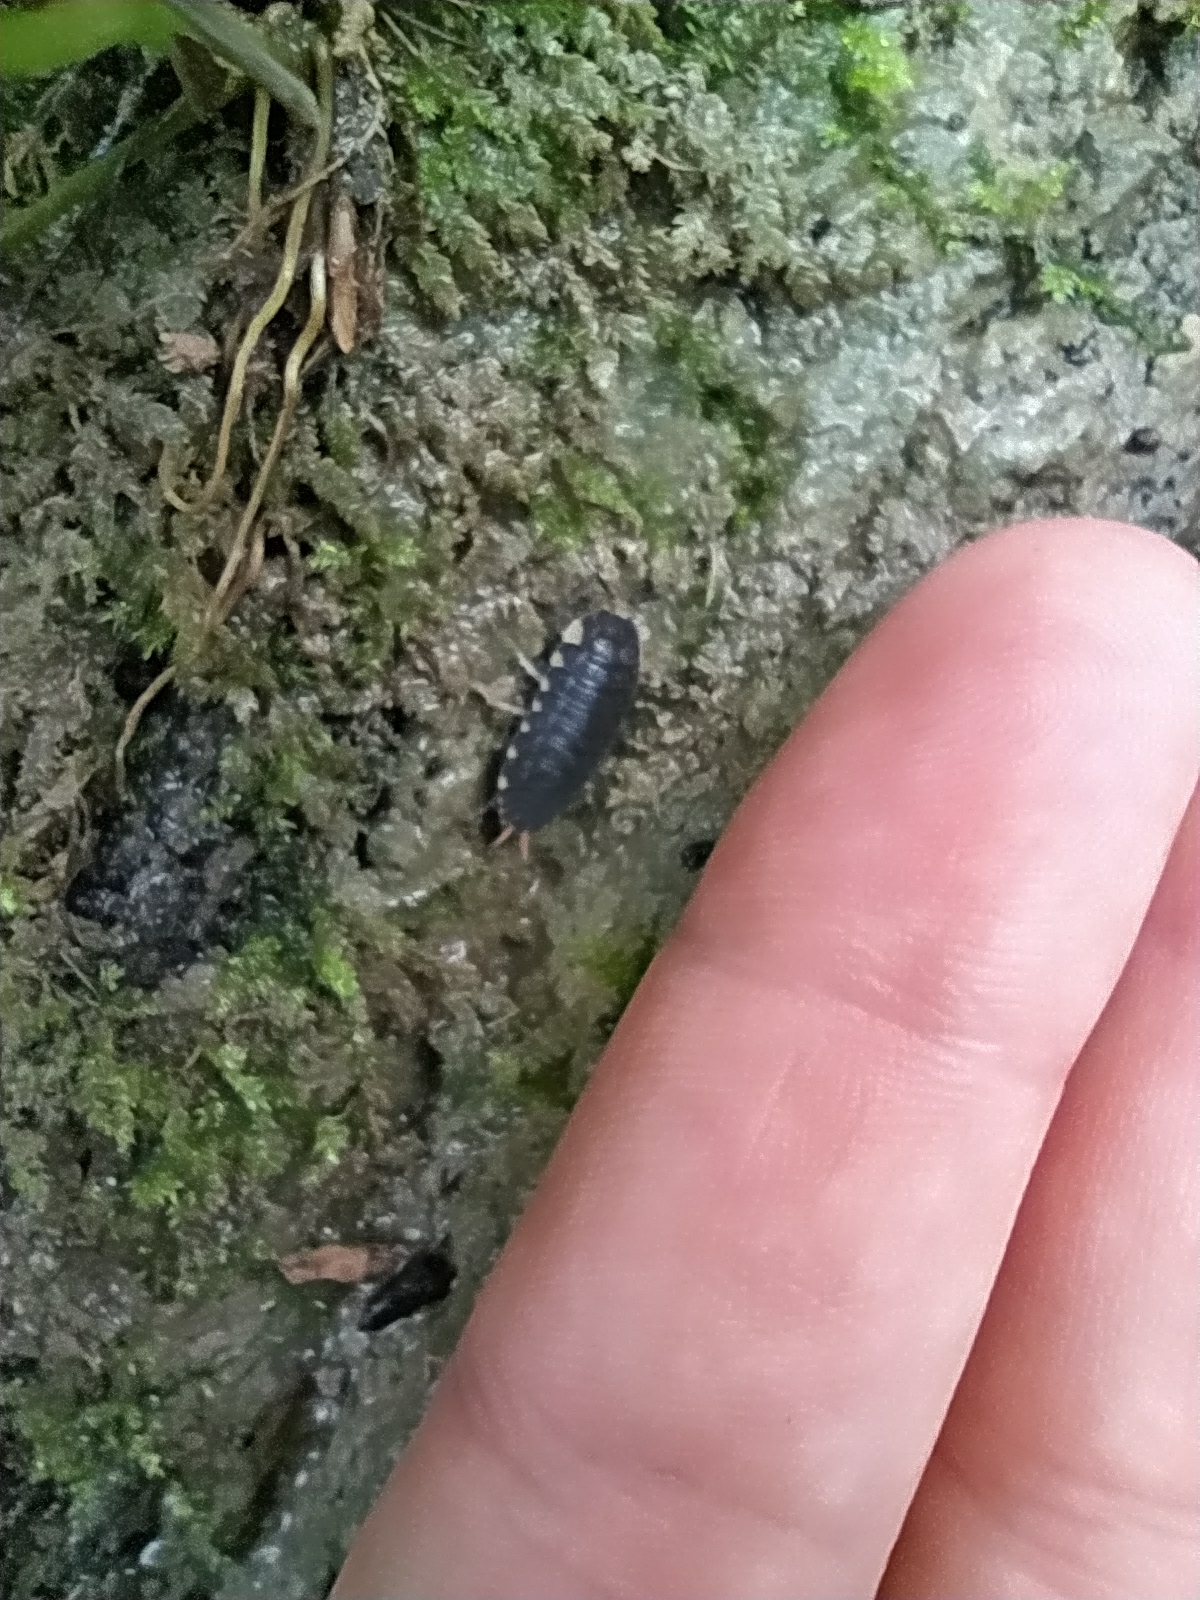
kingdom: Animalia
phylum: Arthropoda
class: Malacostraca
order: Isopoda
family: Trachelipodidae
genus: Trachelipus
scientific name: Trachelipus lutshnikii
